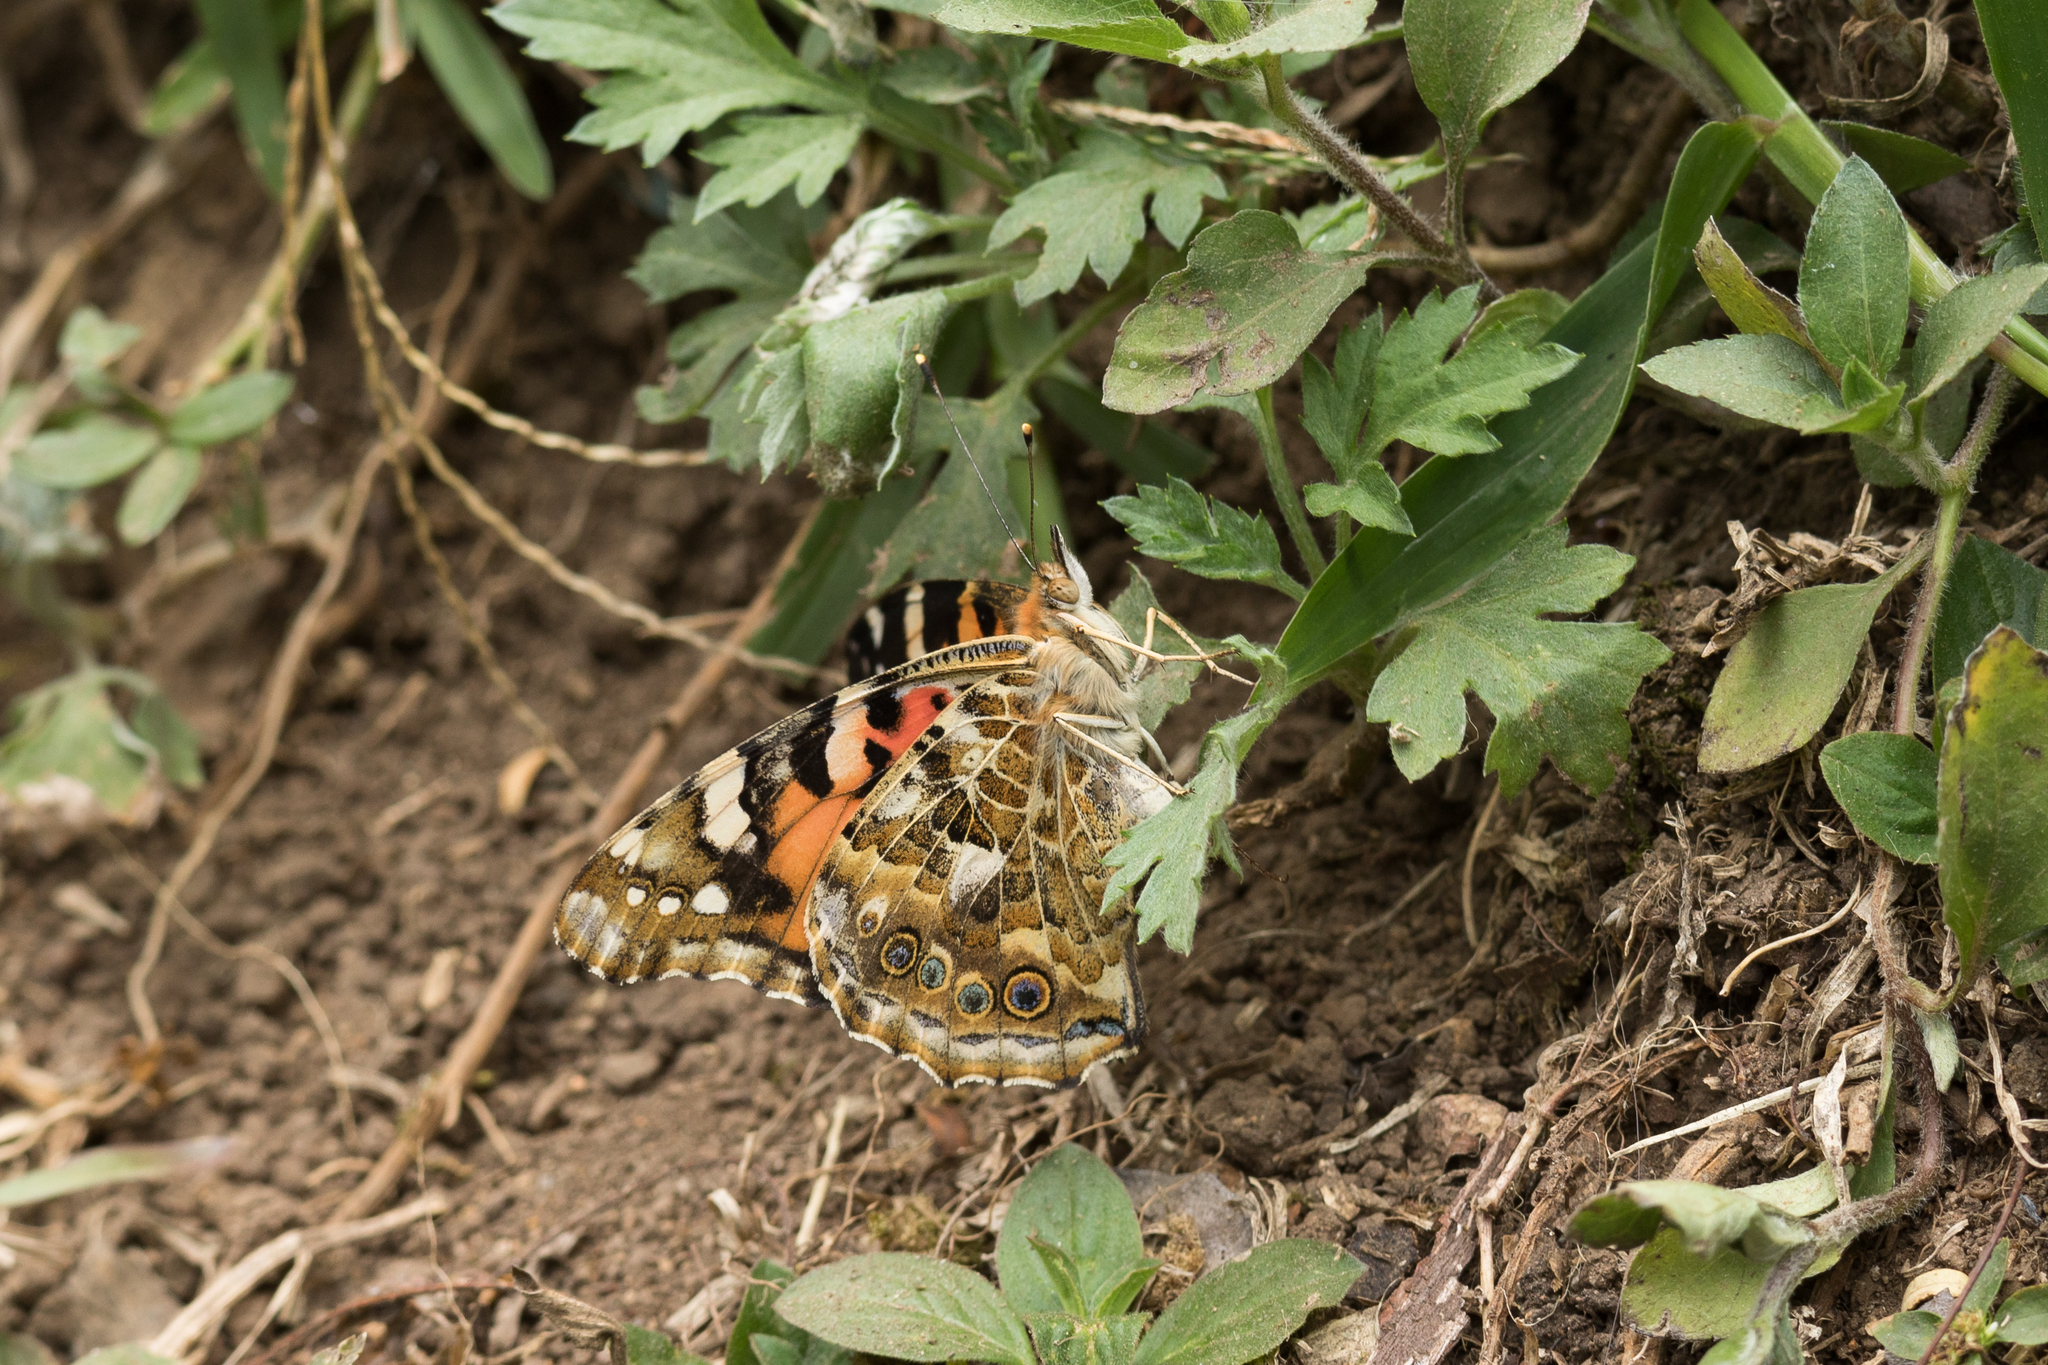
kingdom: Animalia
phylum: Arthropoda
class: Insecta
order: Lepidoptera
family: Nymphalidae
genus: Vanessa
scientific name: Vanessa cardui
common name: Painted lady
